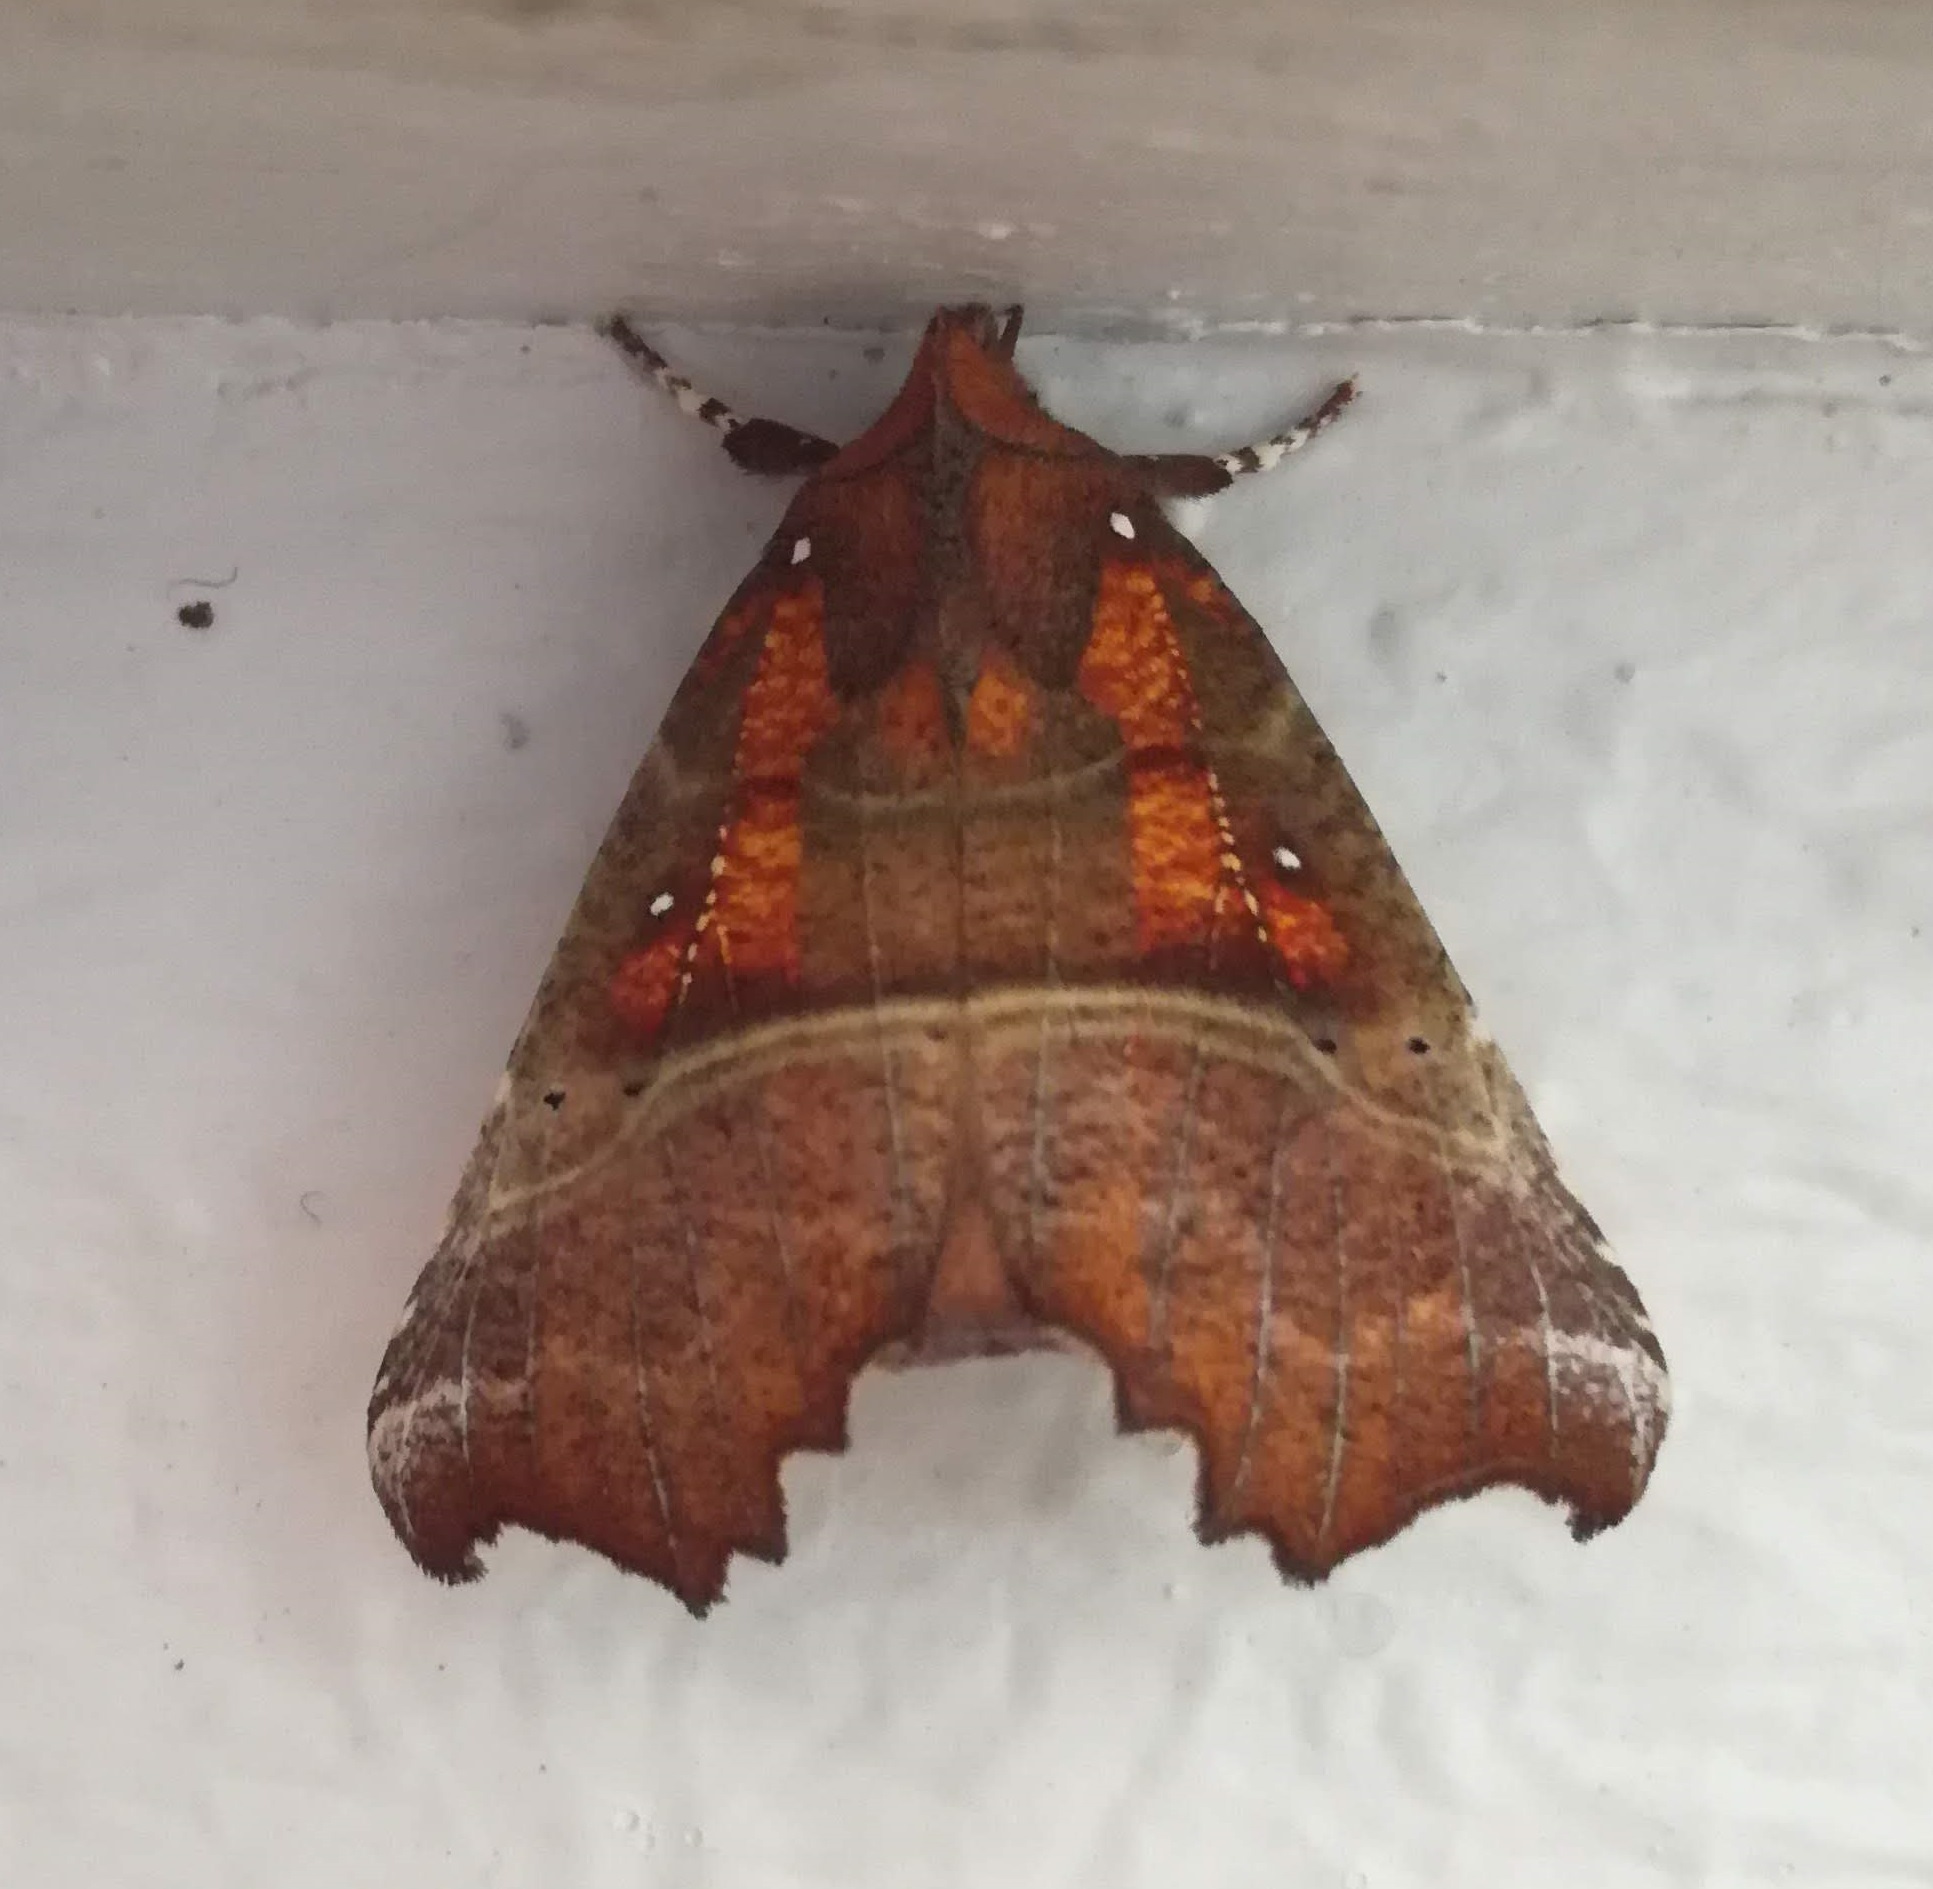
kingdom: Animalia
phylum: Arthropoda
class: Insecta
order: Lepidoptera
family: Erebidae
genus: Scoliopteryx
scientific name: Scoliopteryx libatrix
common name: Herald
